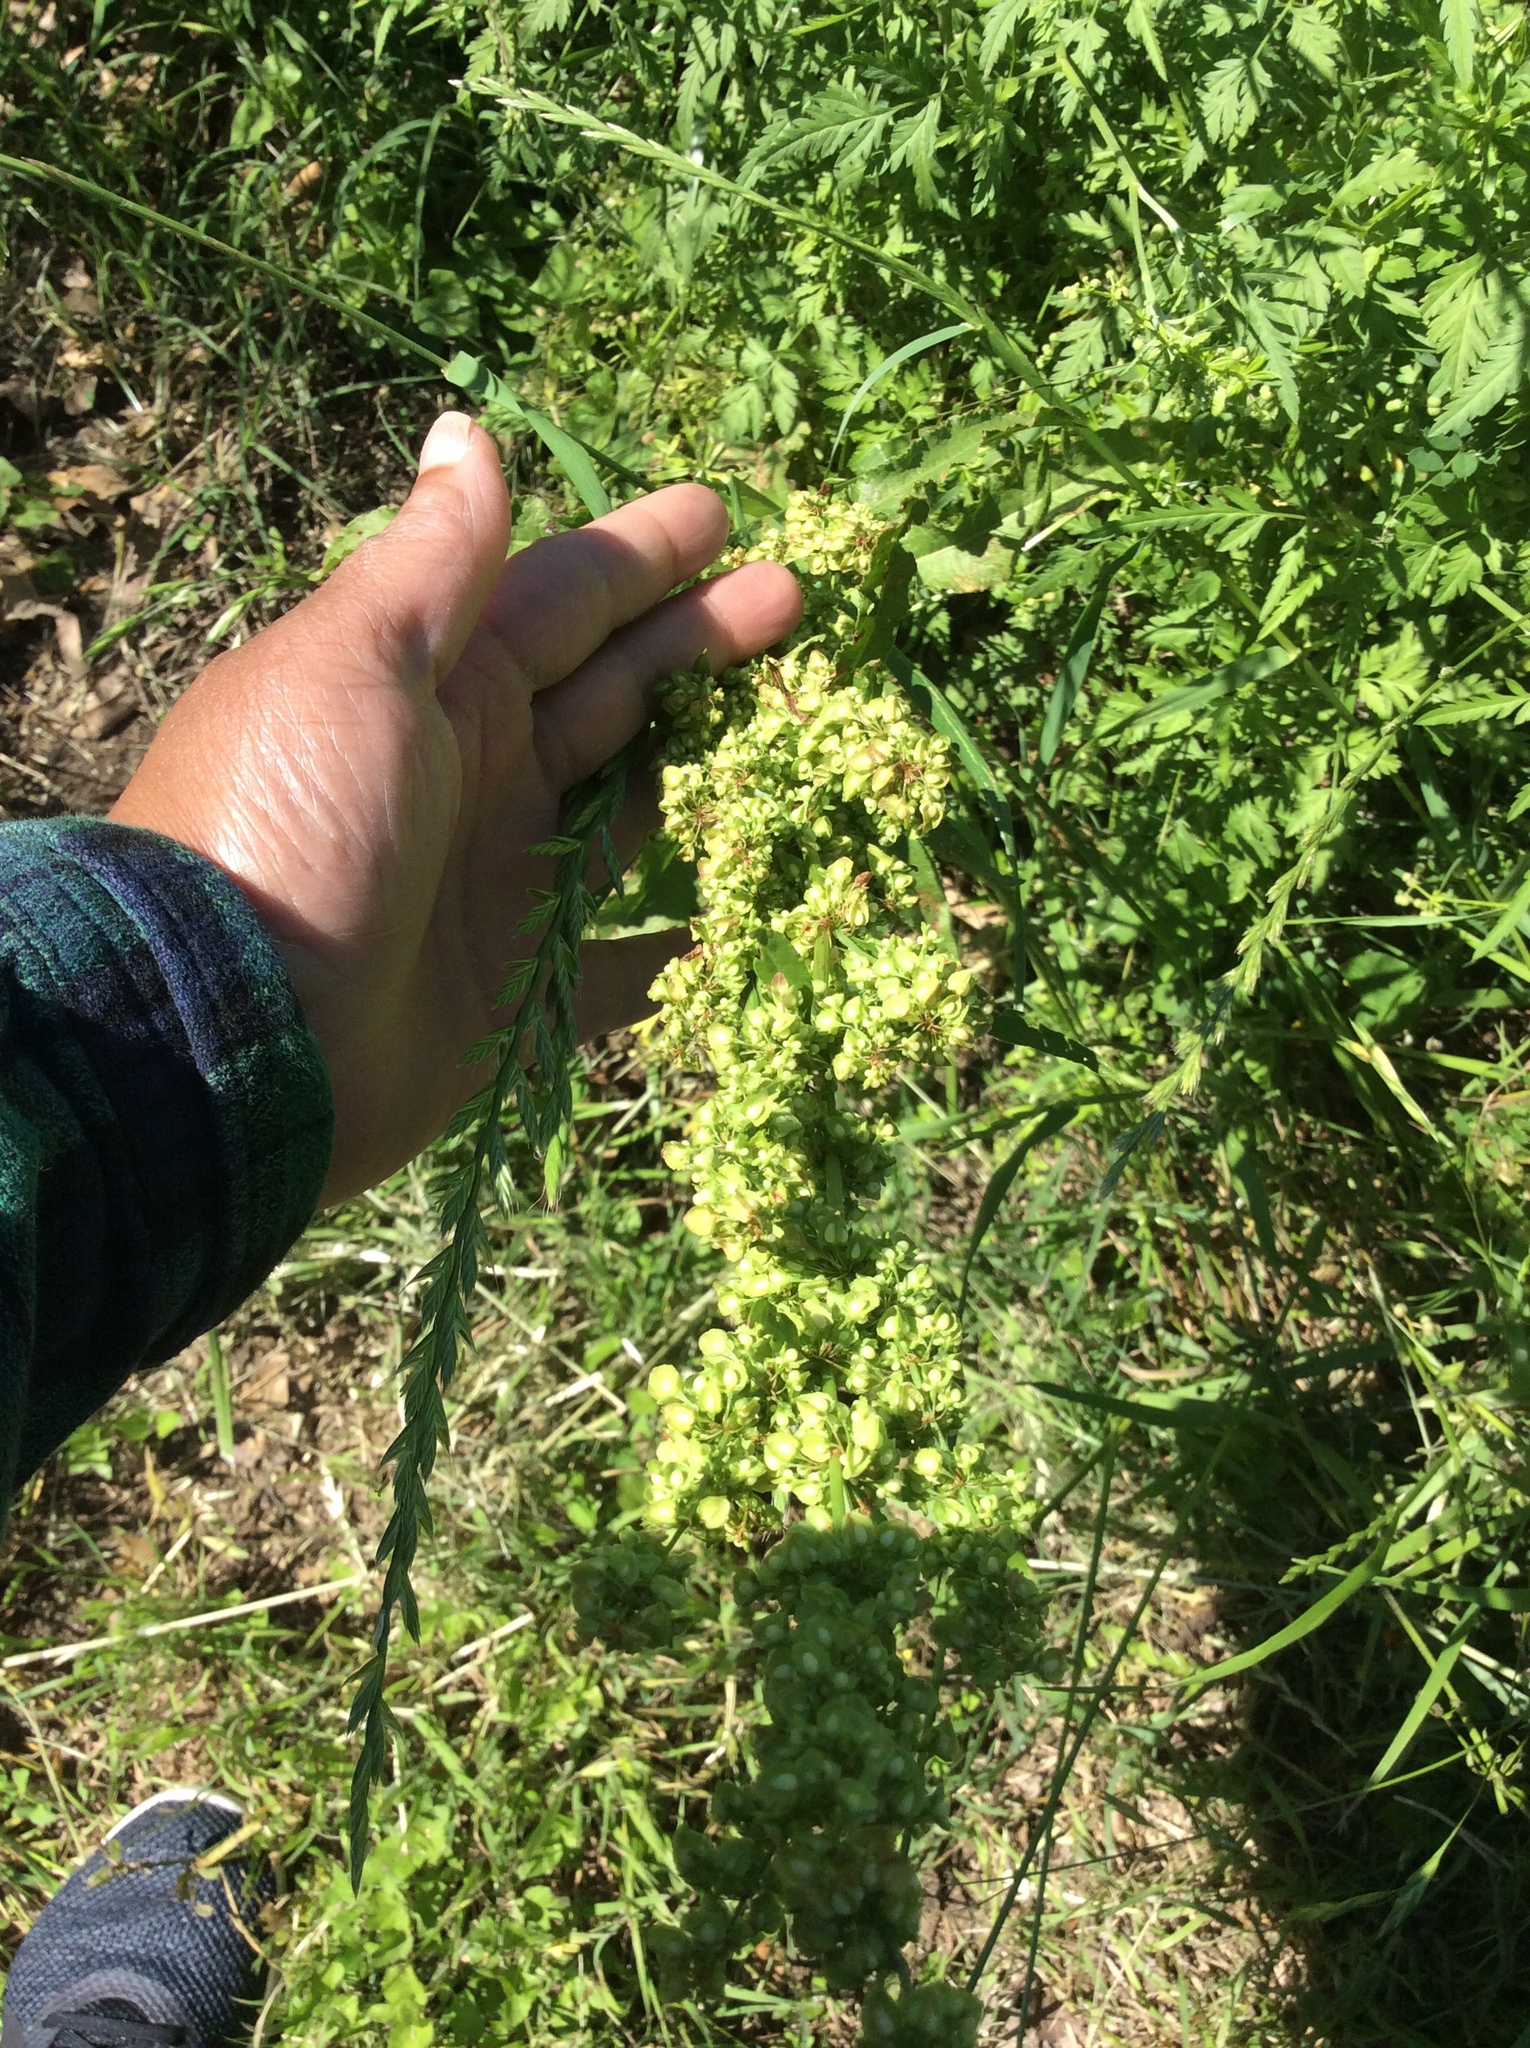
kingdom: Plantae
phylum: Tracheophyta
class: Magnoliopsida
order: Caryophyllales
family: Polygonaceae
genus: Rumex
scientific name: Rumex crispus
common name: Curled dock
